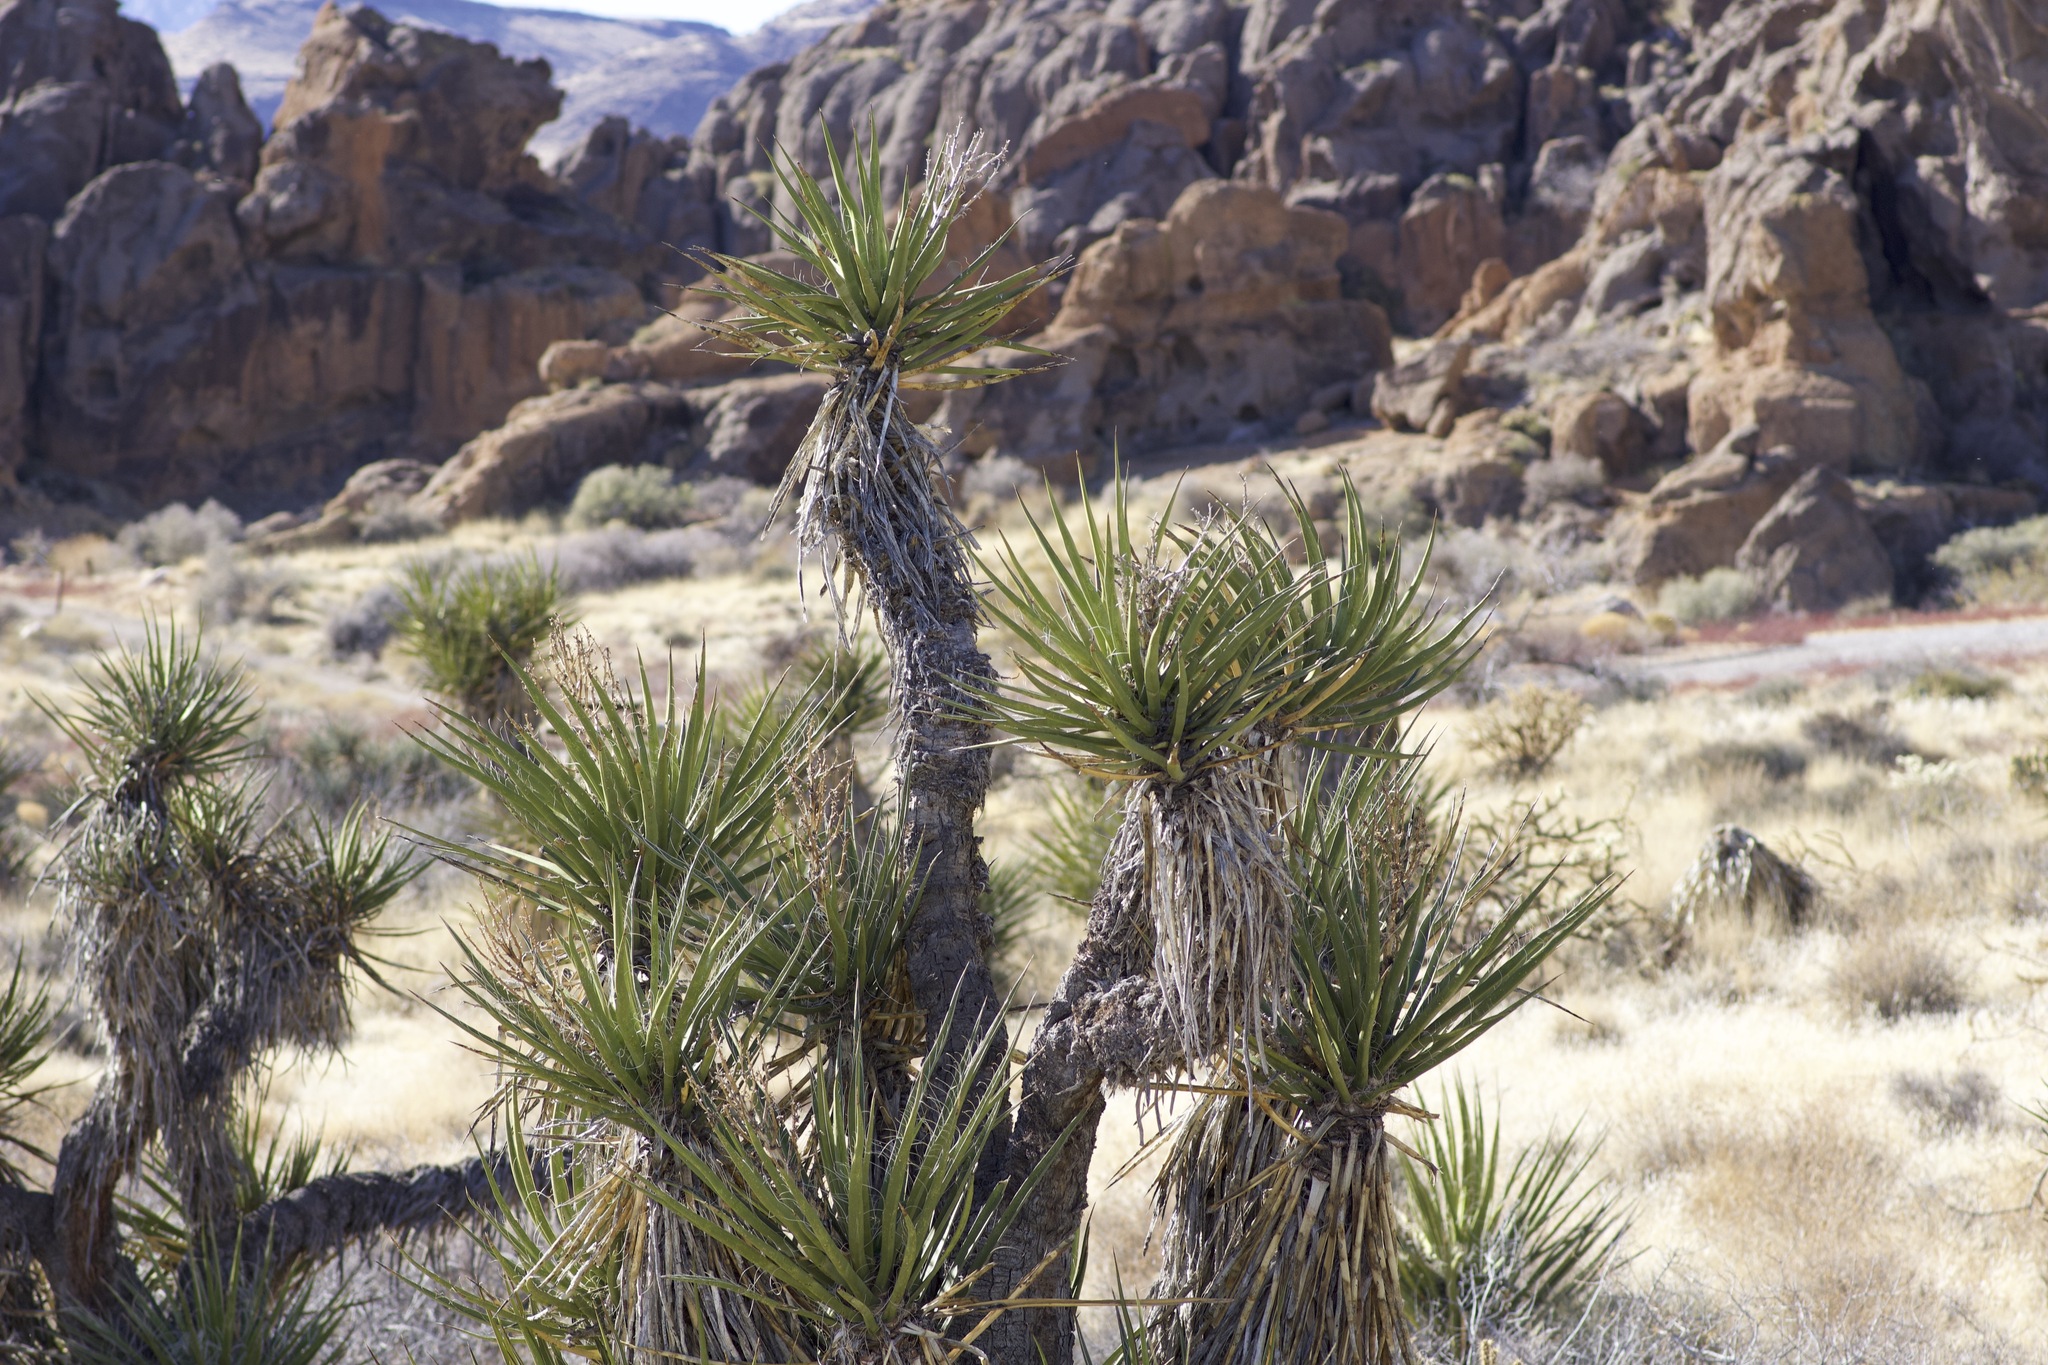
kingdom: Plantae
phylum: Tracheophyta
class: Liliopsida
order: Asparagales
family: Asparagaceae
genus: Yucca
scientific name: Yucca schidigera
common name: Mojave yucca
